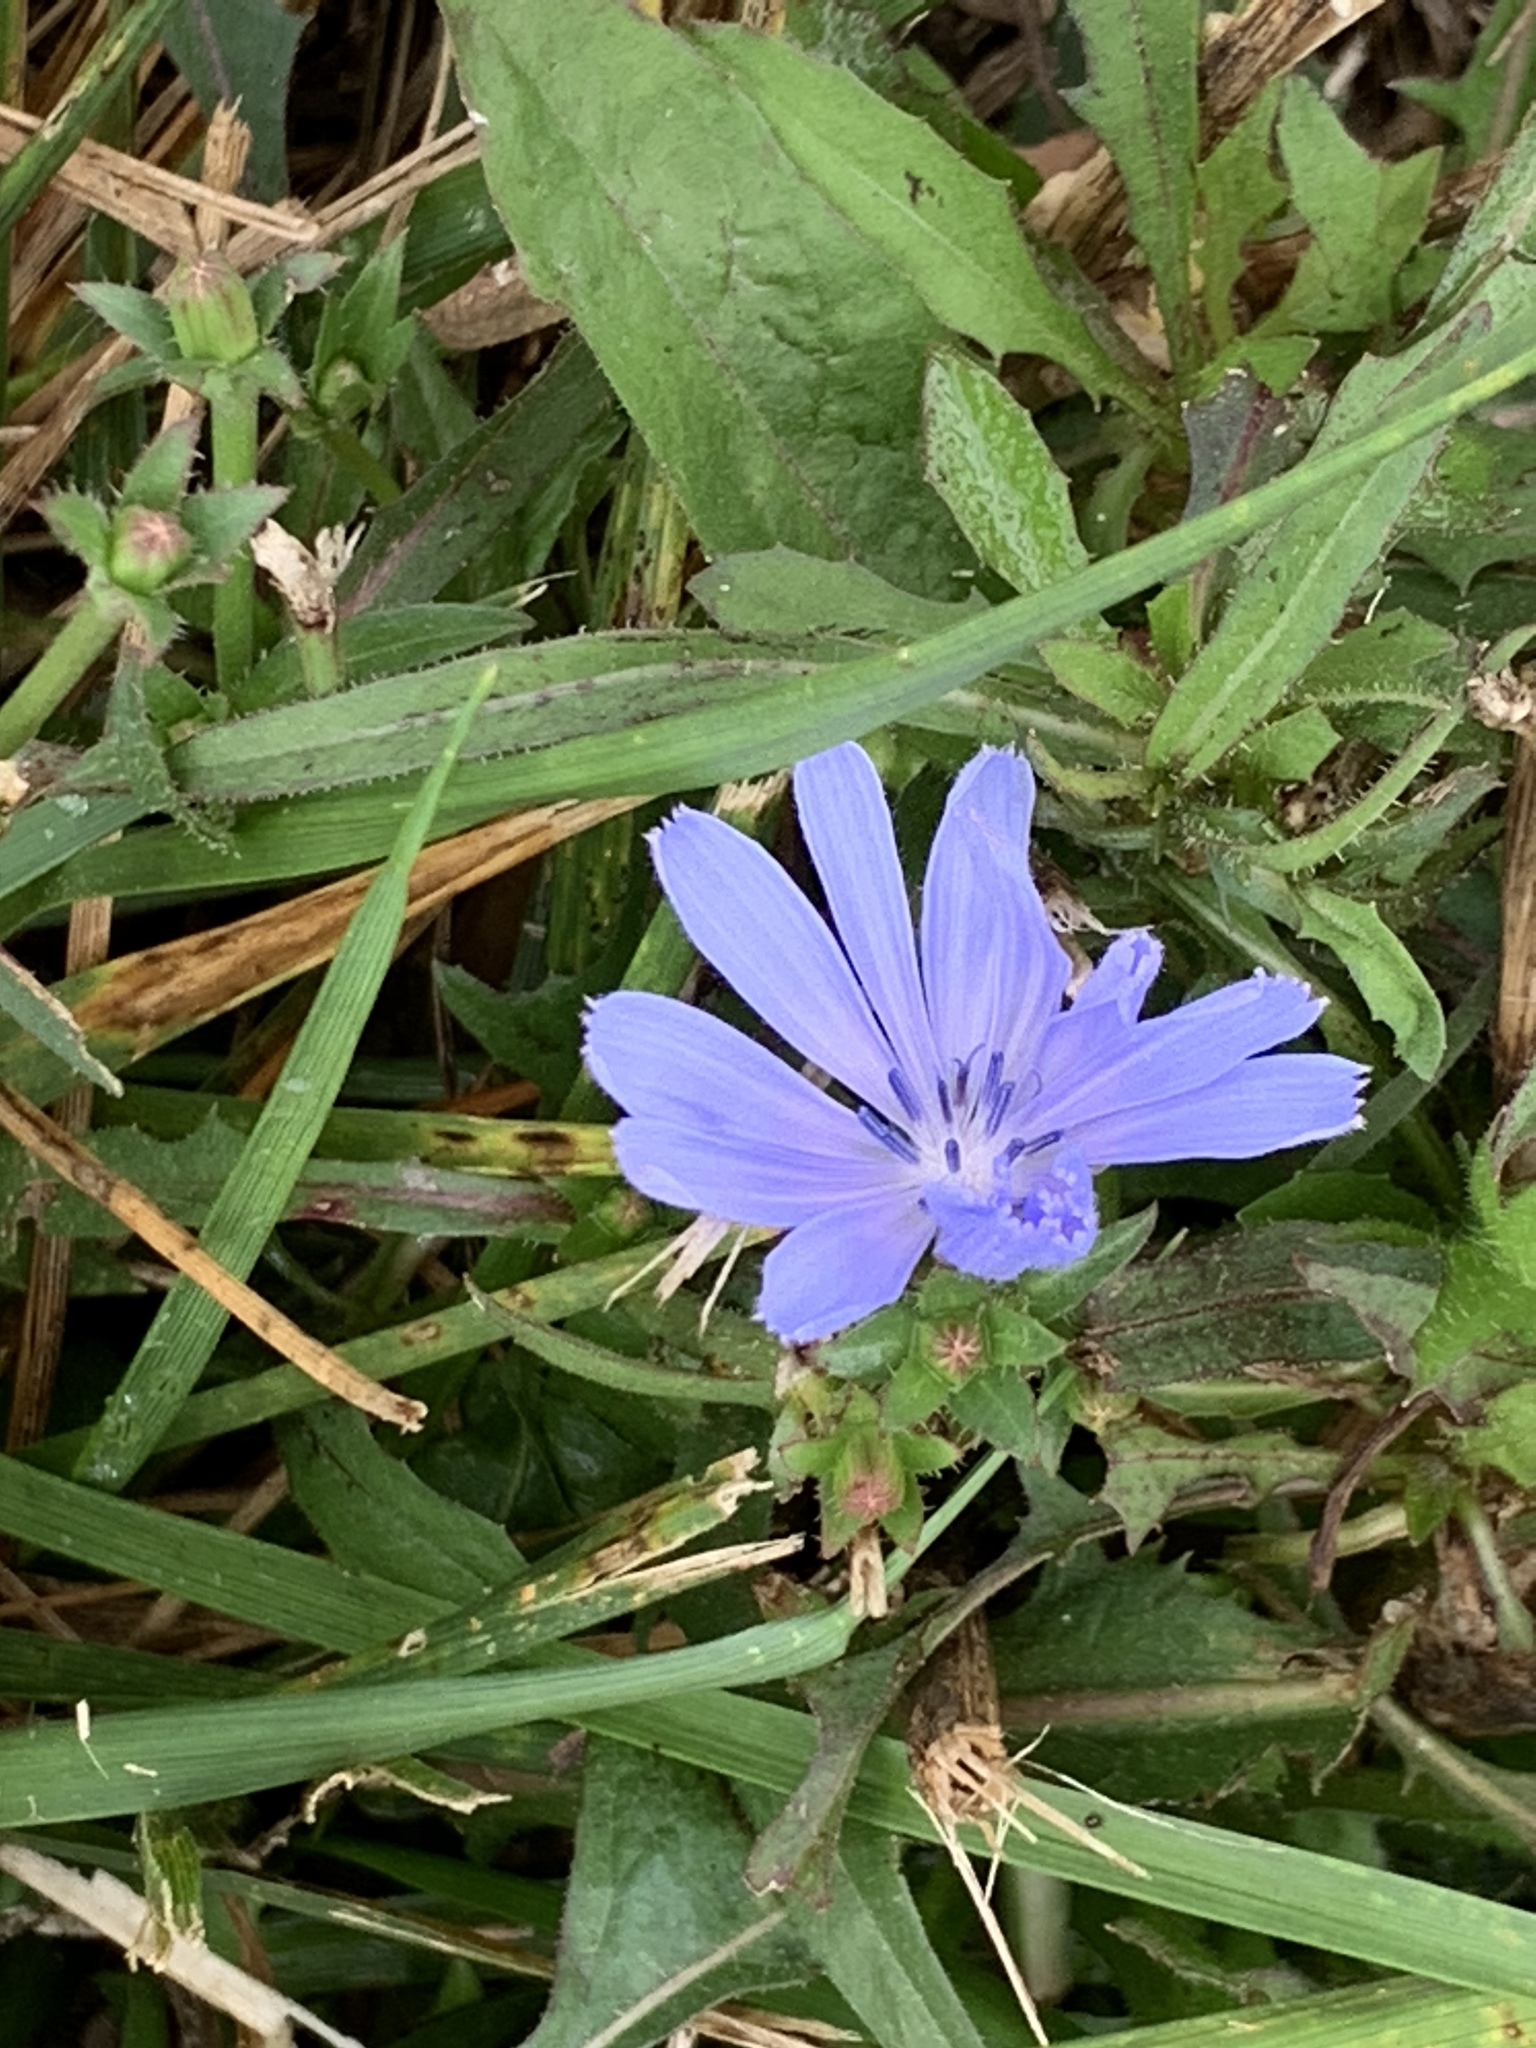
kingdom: Plantae
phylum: Tracheophyta
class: Magnoliopsida
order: Asterales
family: Asteraceae
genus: Cichorium
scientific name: Cichorium intybus
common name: Chicory
